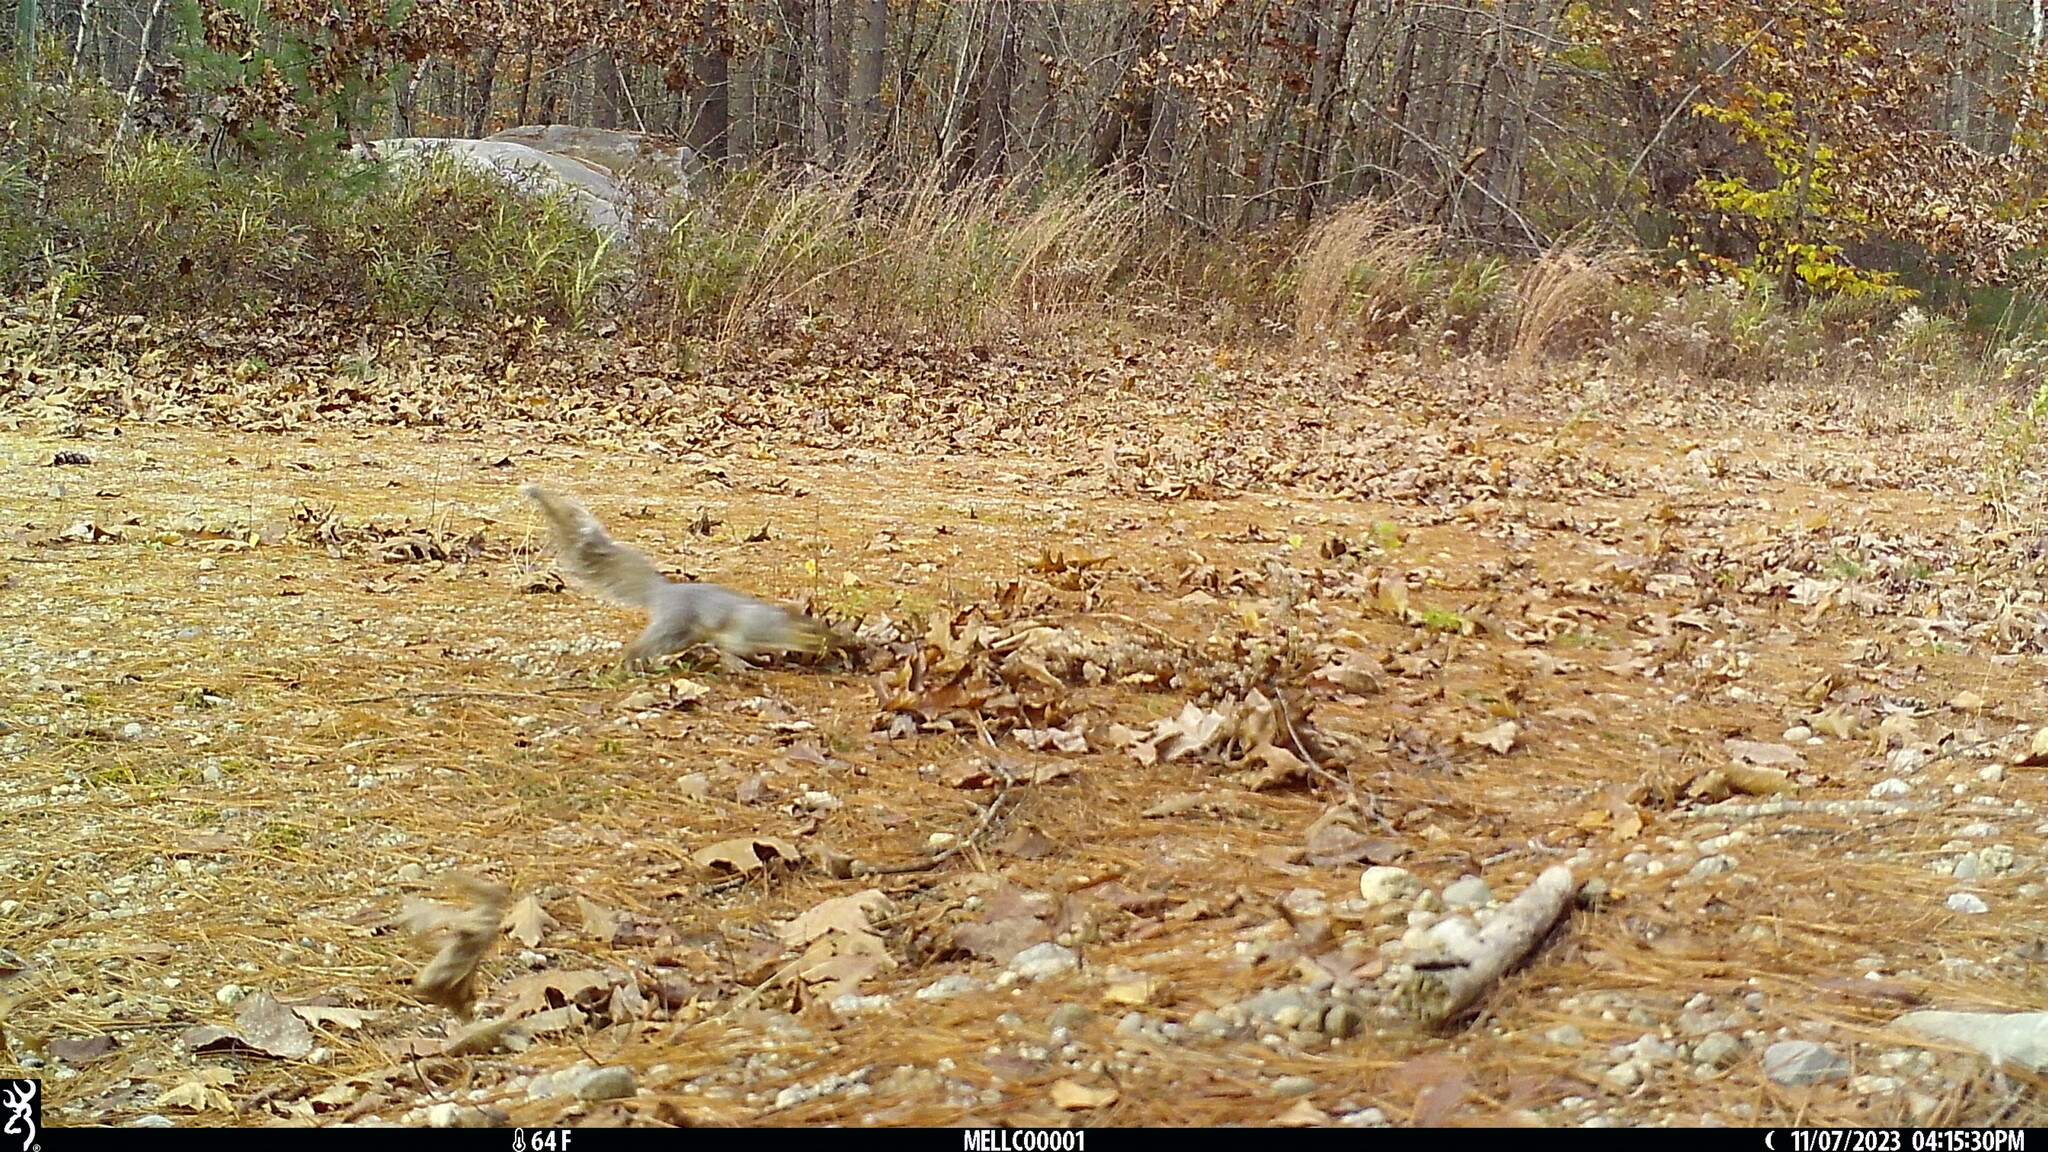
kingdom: Animalia
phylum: Chordata
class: Mammalia
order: Rodentia
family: Sciuridae
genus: Sciurus
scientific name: Sciurus carolinensis
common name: Eastern gray squirrel
